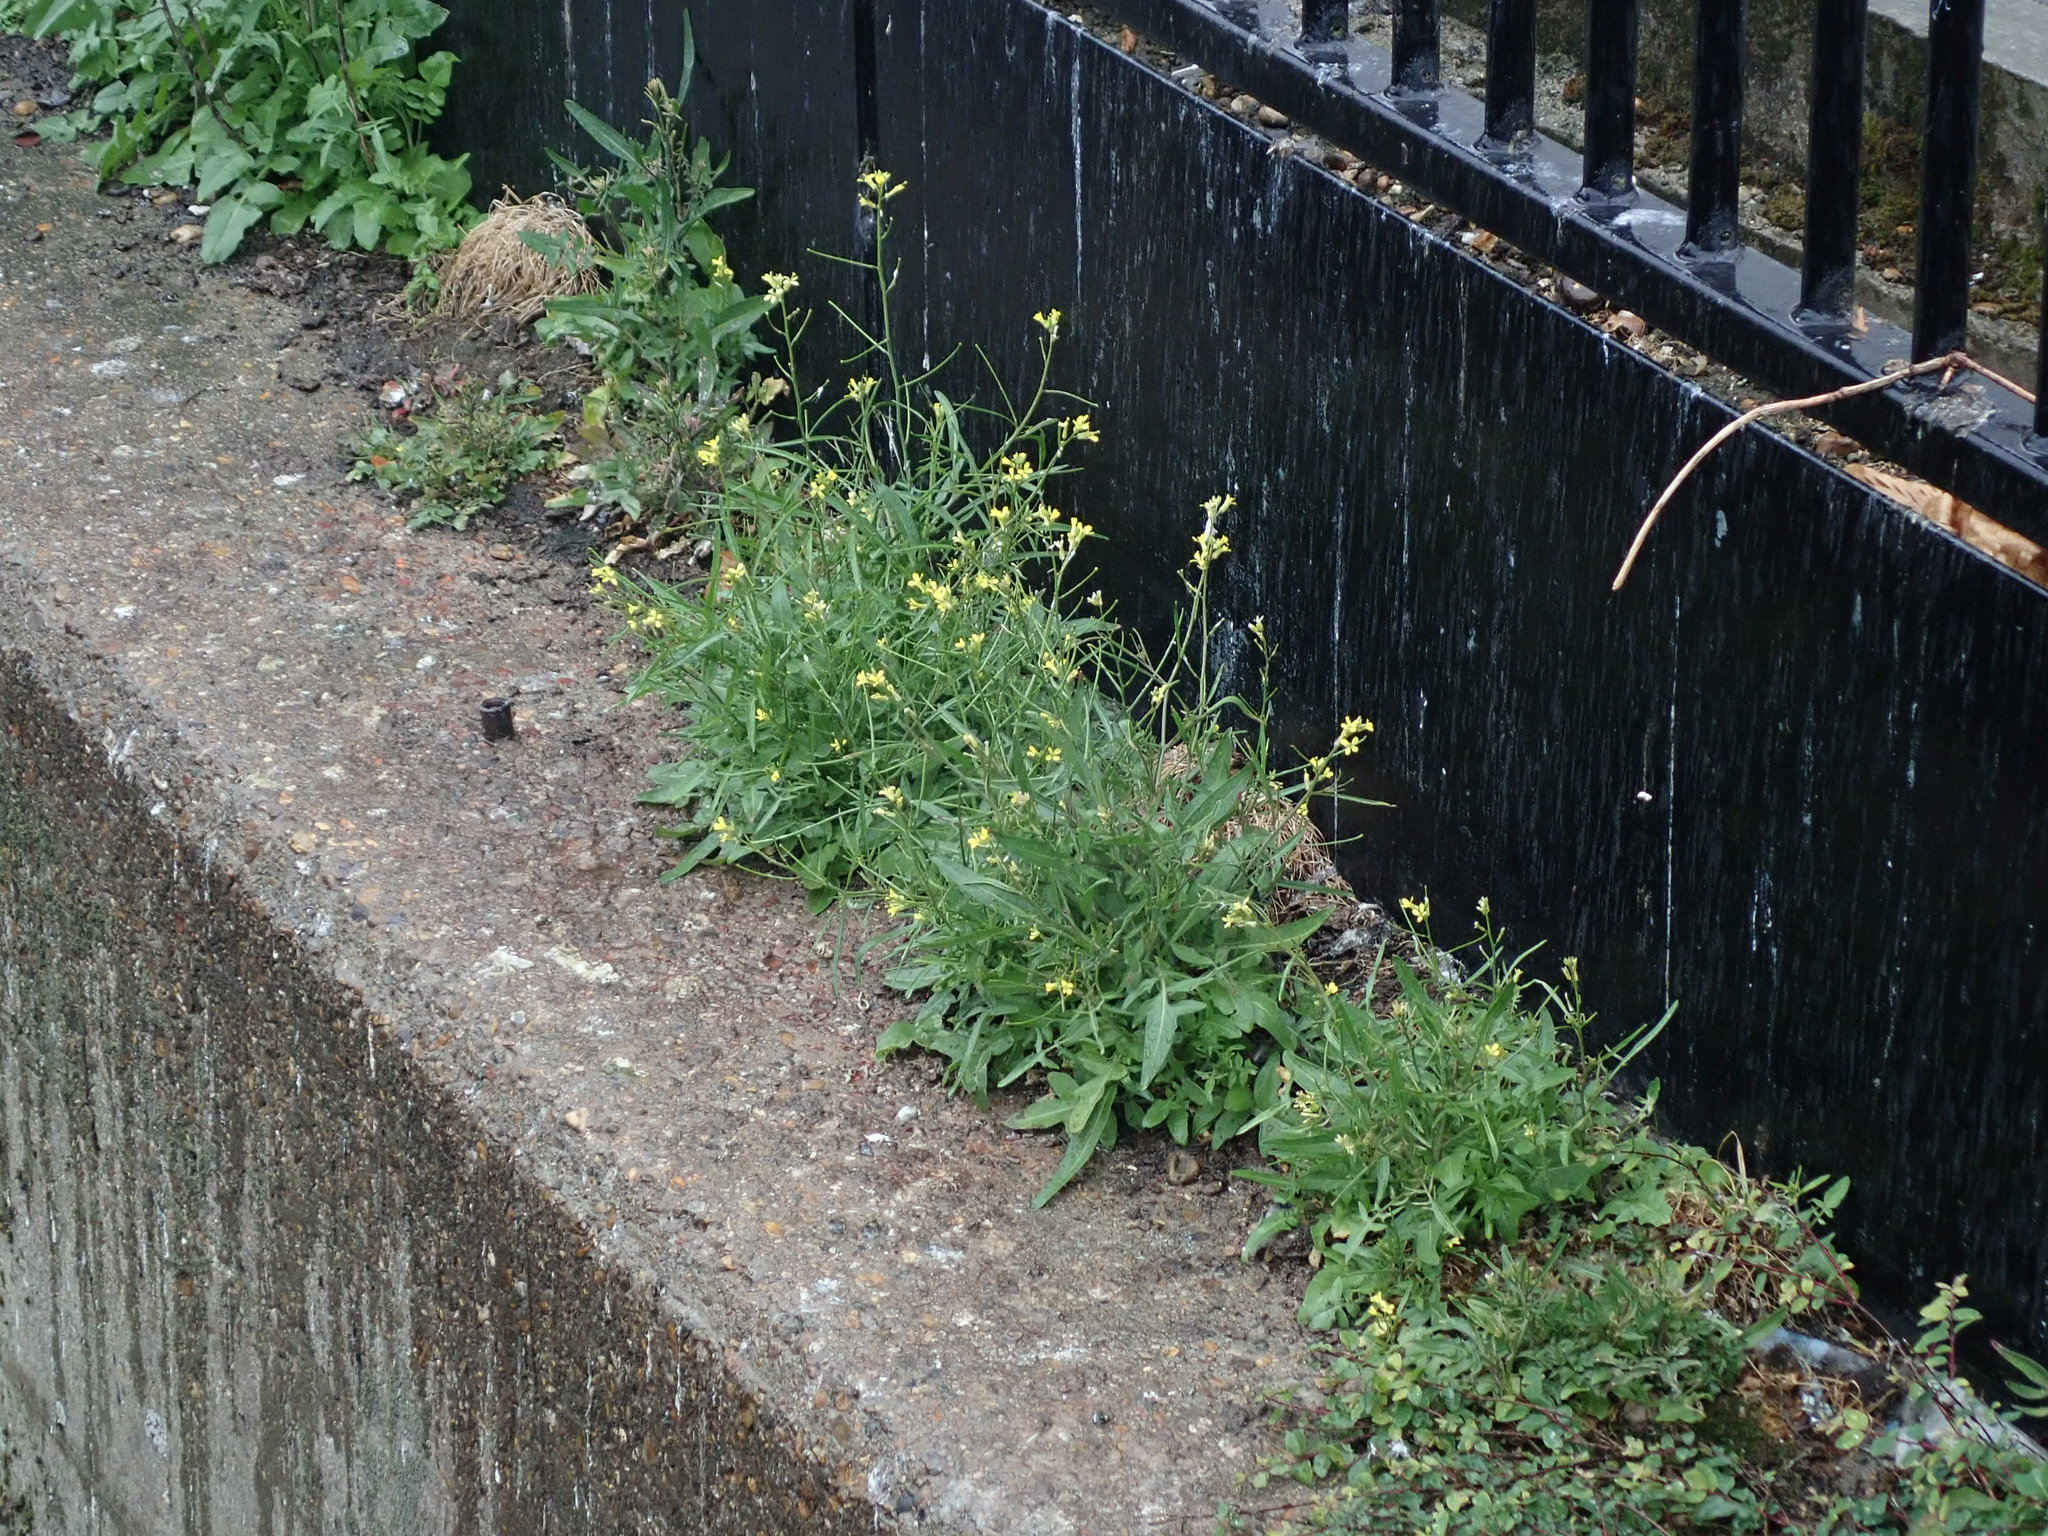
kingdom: Plantae
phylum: Tracheophyta
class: Magnoliopsida
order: Brassicales
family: Brassicaceae
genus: Sisymbrium
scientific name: Sisymbrium orientale
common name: Eastern rocket
